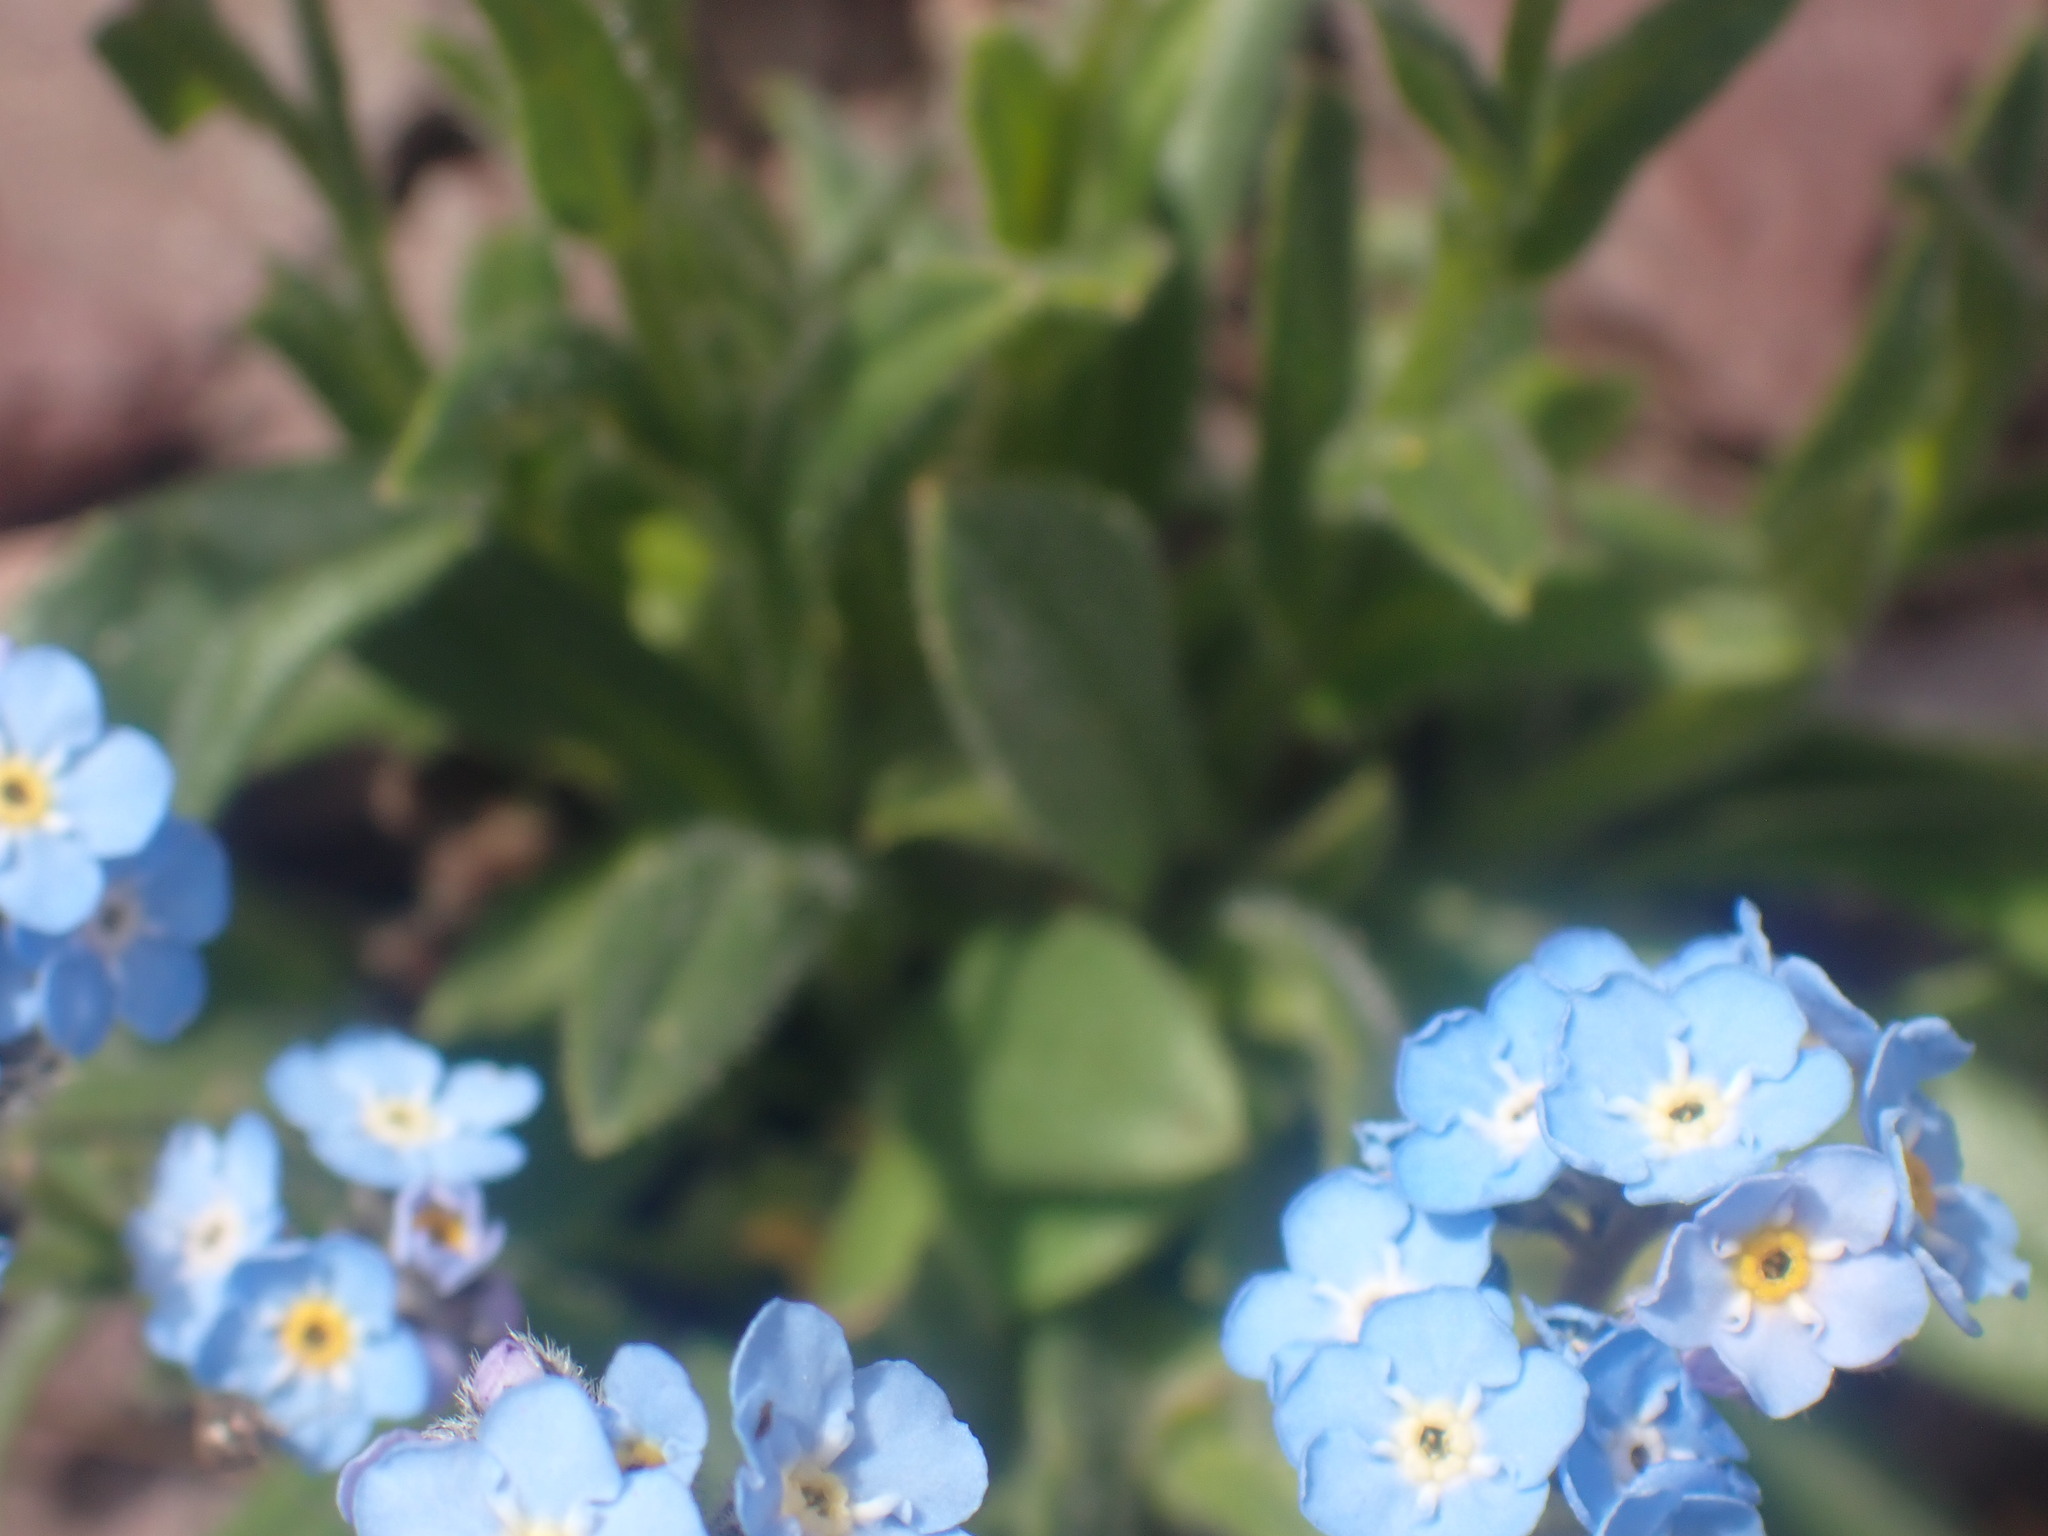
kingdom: Plantae
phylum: Tracheophyta
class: Magnoliopsida
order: Boraginales
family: Boraginaceae
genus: Myosotis
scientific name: Myosotis asiatica
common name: Asian forget-me-not
